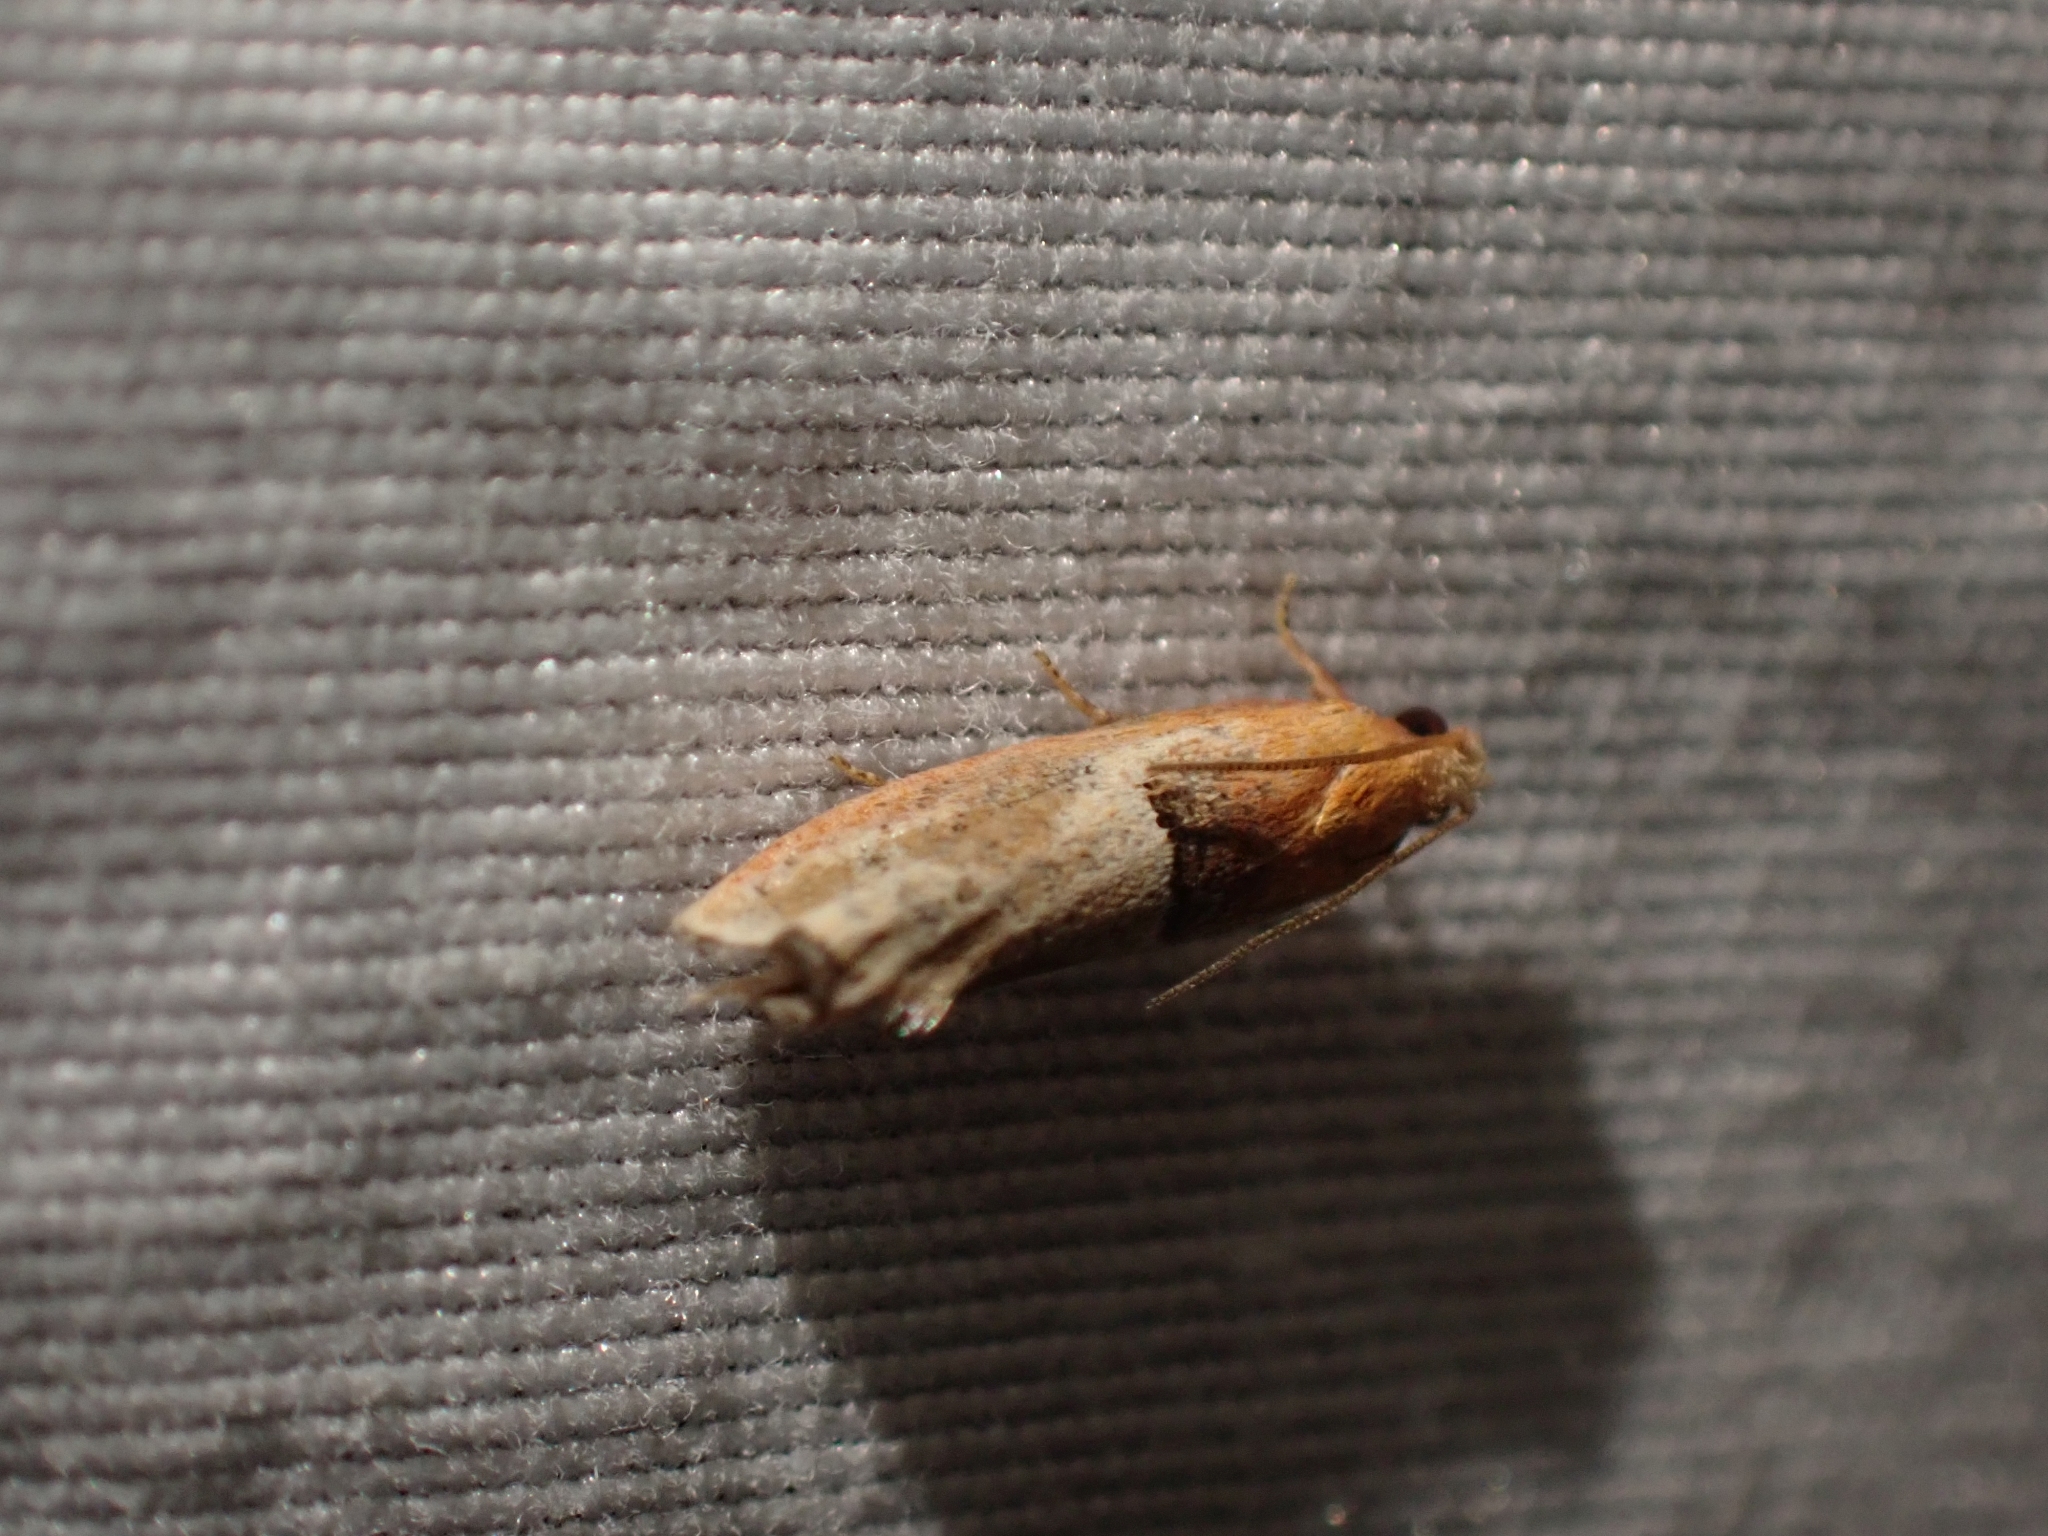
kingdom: Animalia
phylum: Arthropoda
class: Insecta
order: Lepidoptera
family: Tortricidae
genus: Epinotia
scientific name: Epinotia johnsonana
